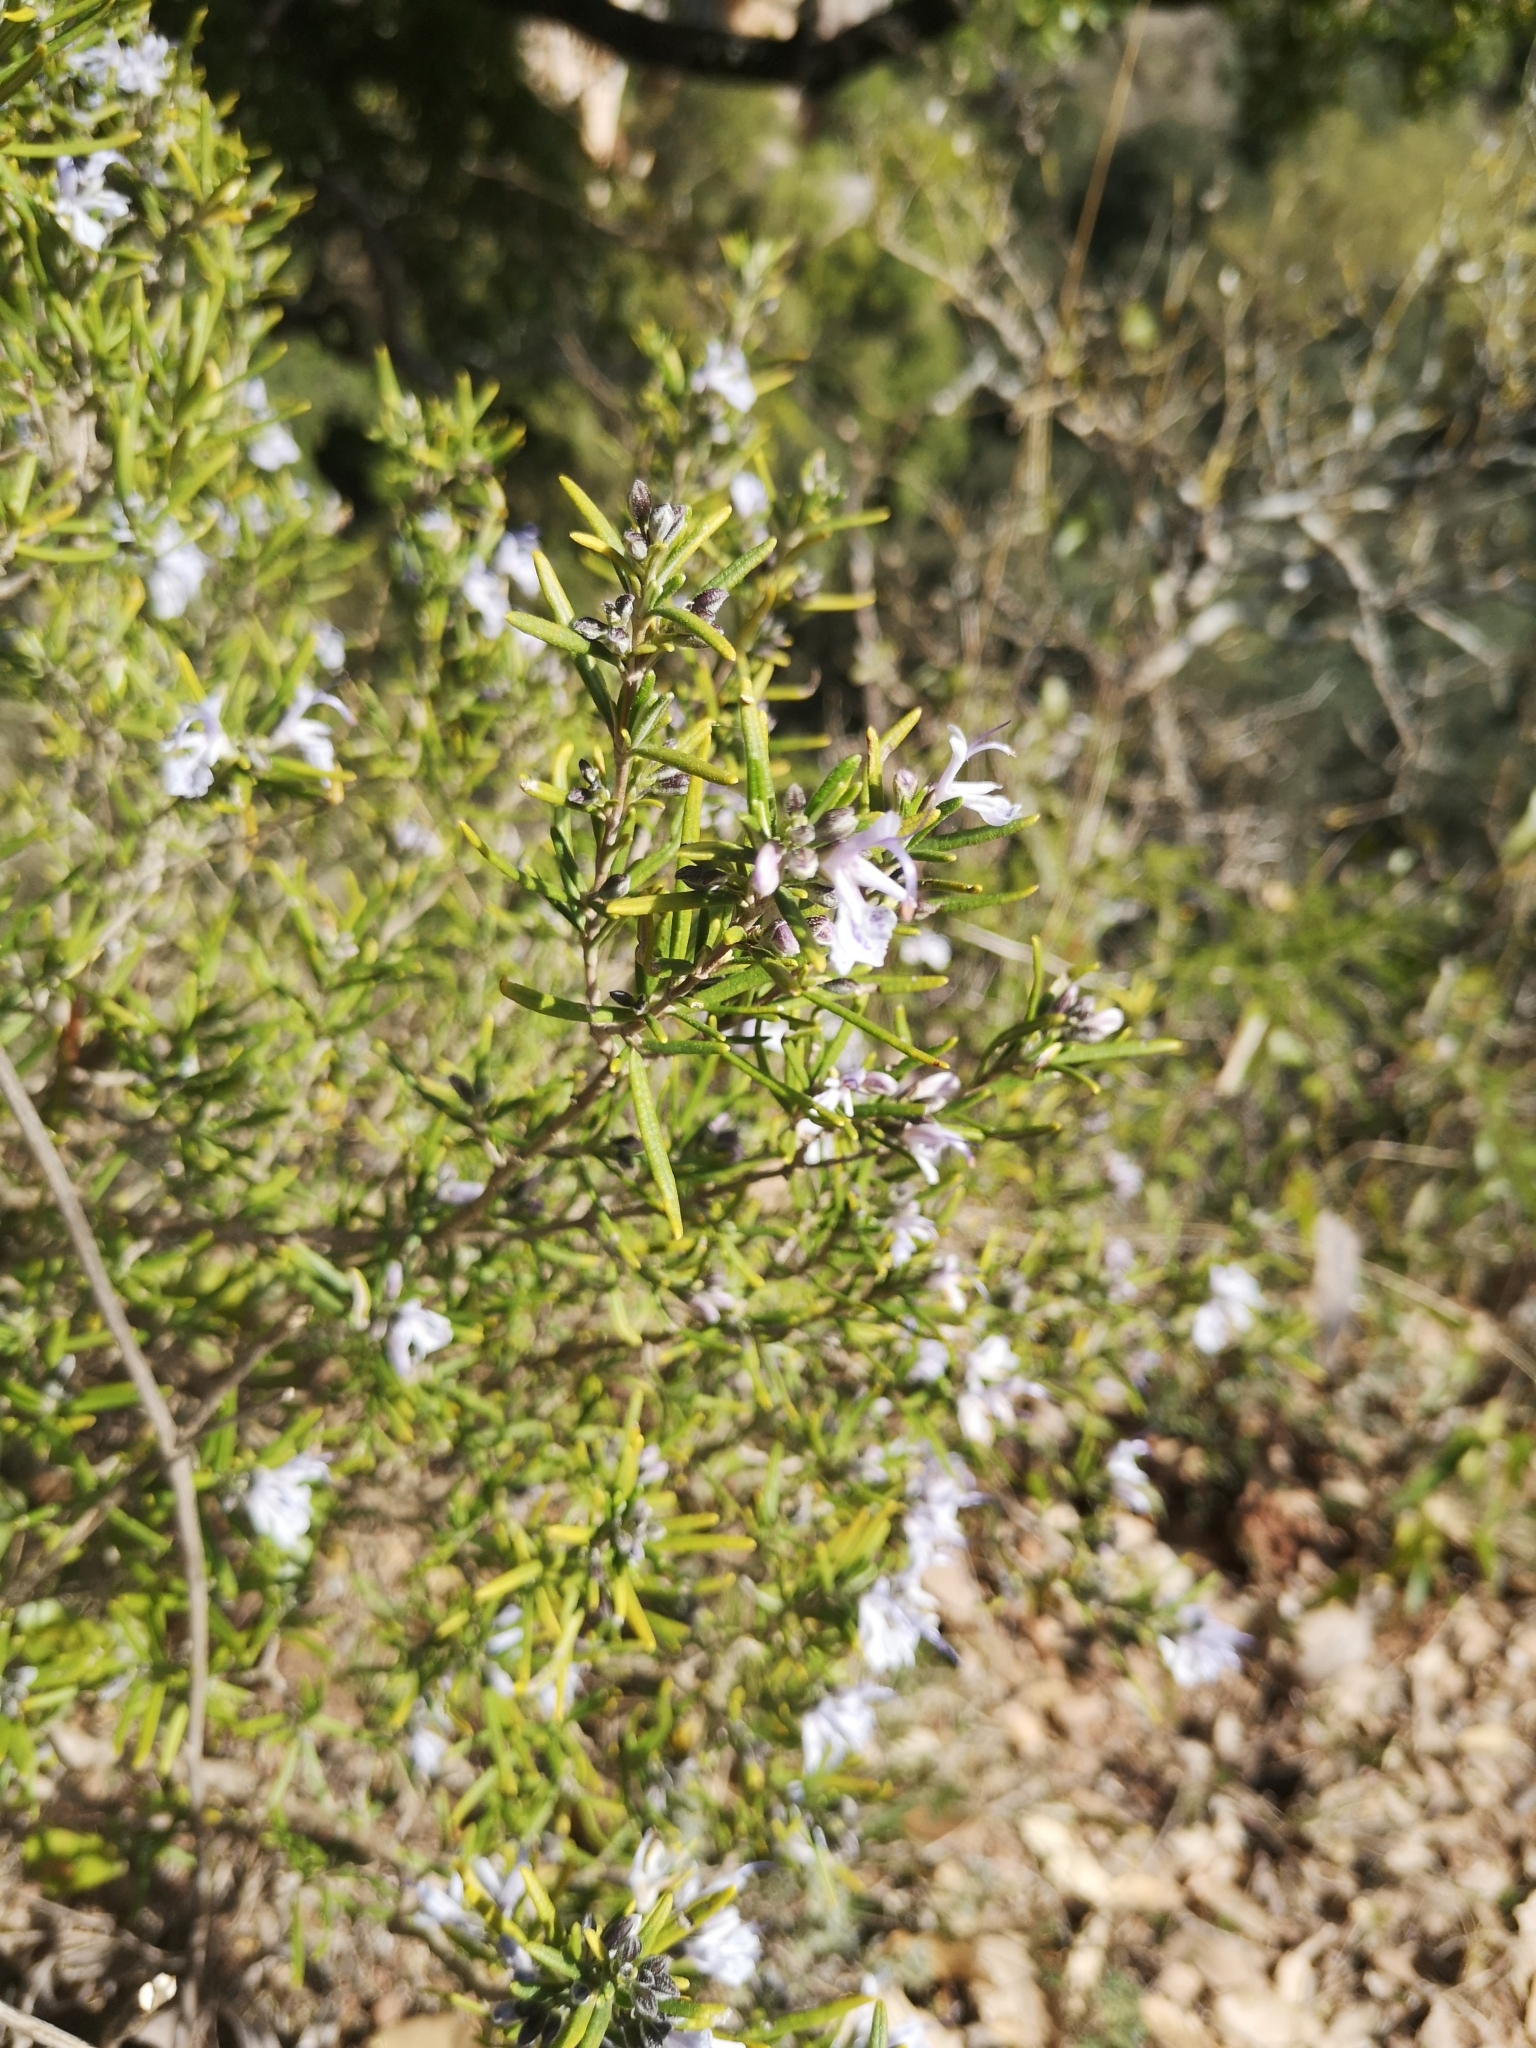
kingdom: Plantae
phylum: Tracheophyta
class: Magnoliopsida
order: Lamiales
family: Lamiaceae
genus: Salvia
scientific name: Salvia rosmarinus
